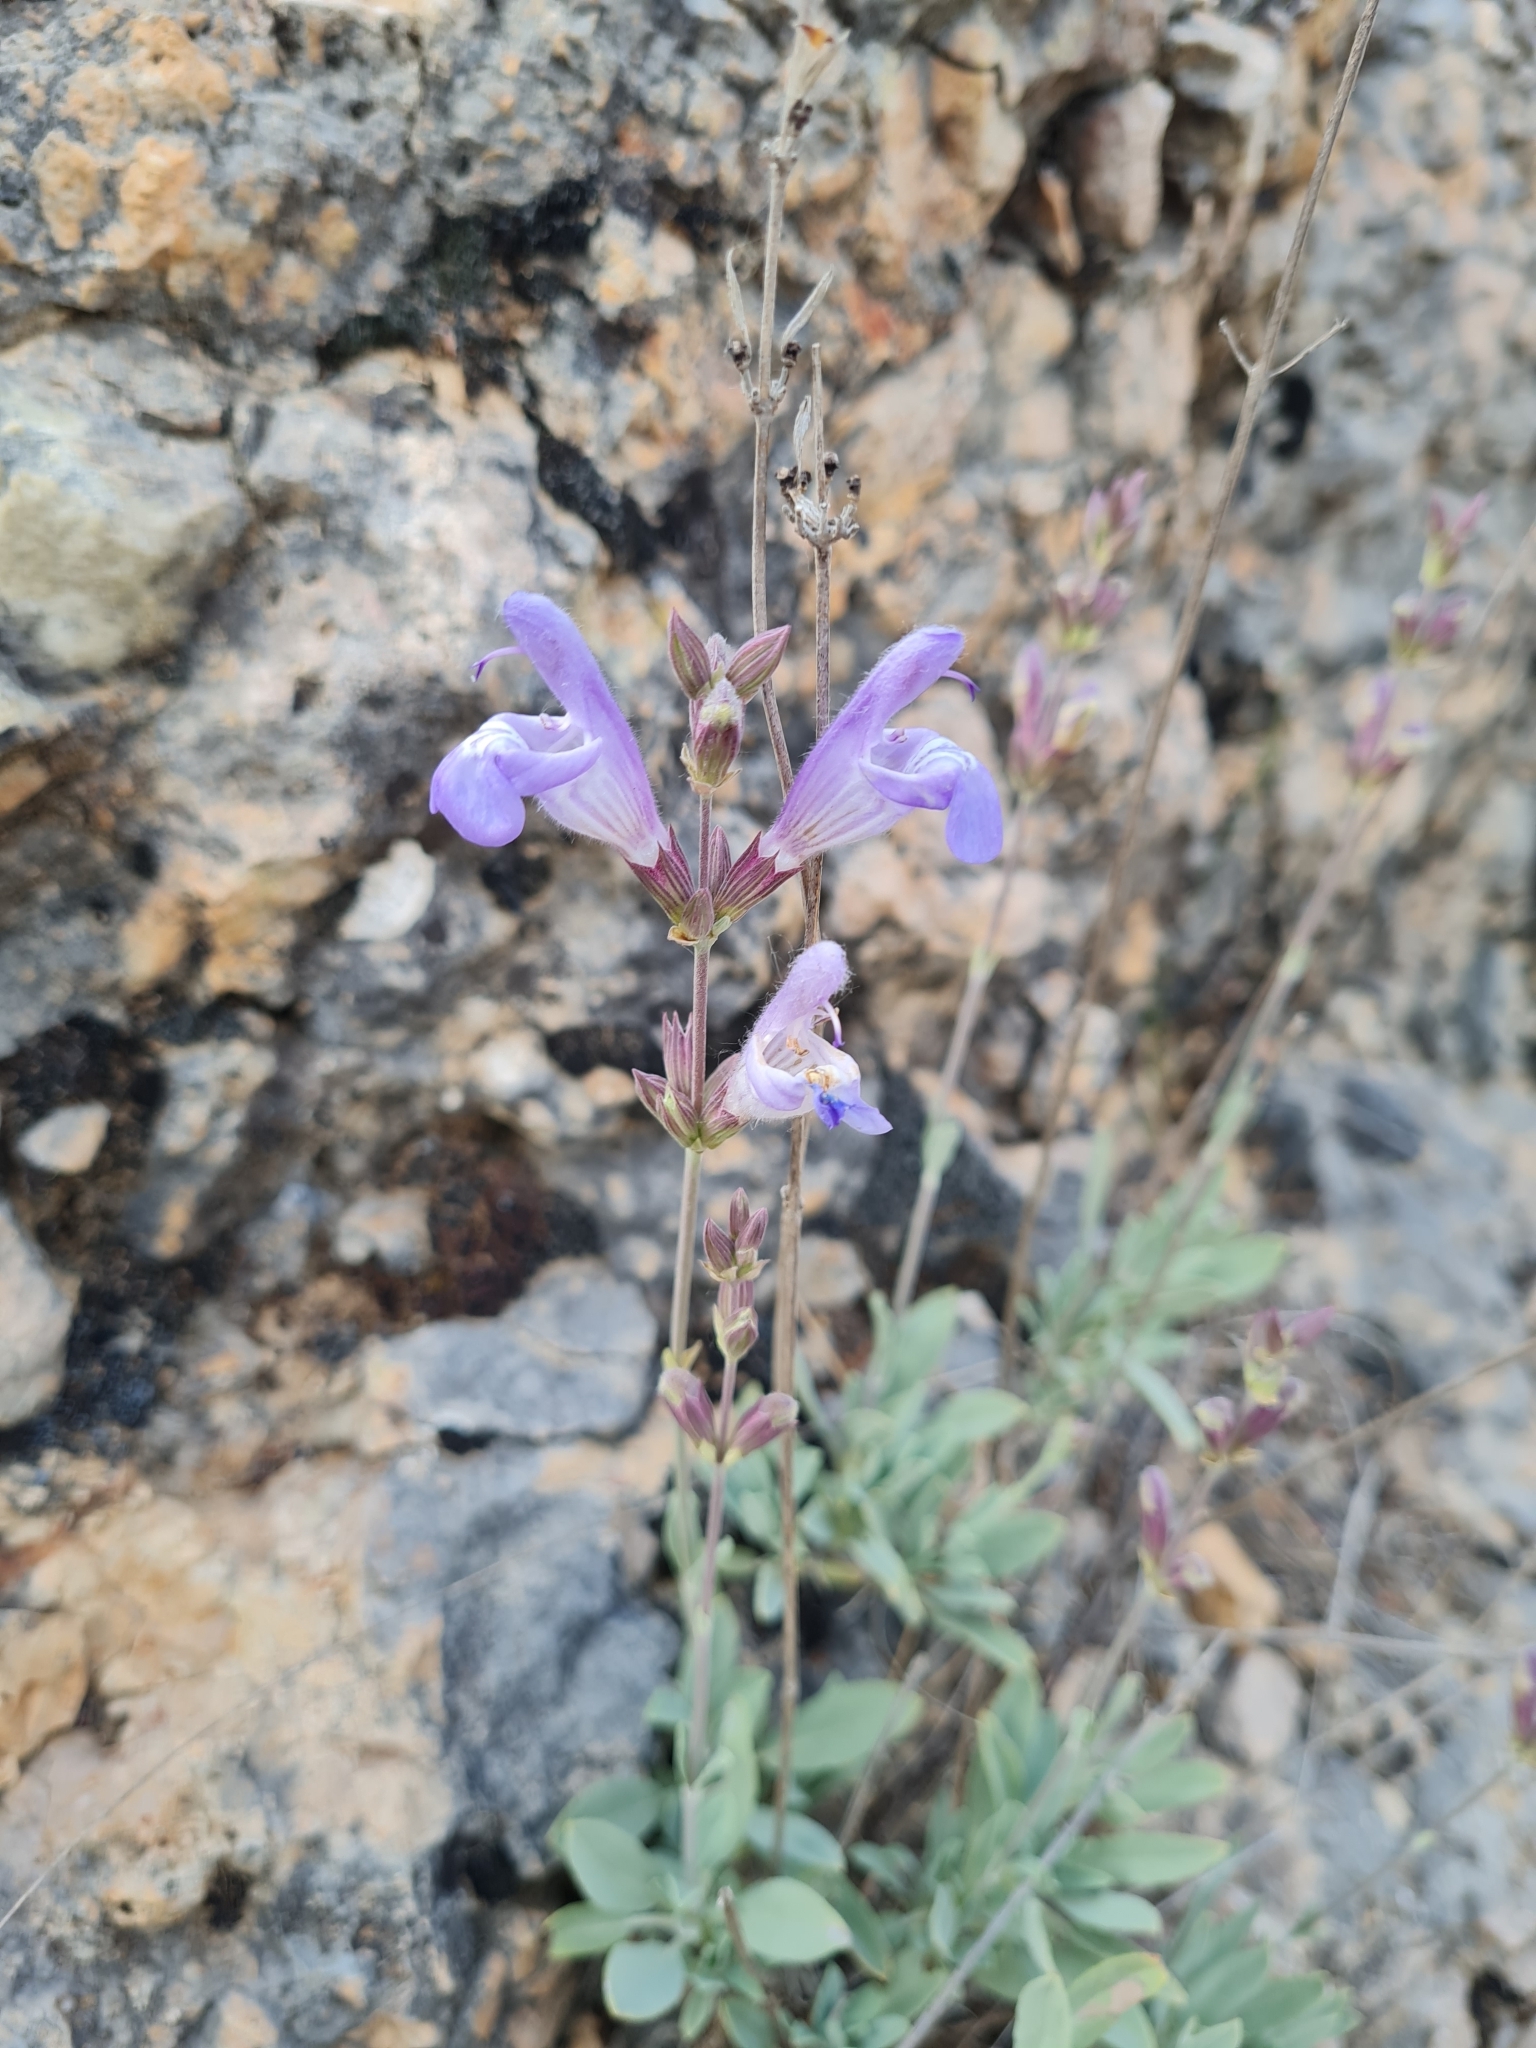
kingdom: Plantae
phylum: Tracheophyta
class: Magnoliopsida
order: Lamiales
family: Lamiaceae
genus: Salvia
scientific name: Salvia officinalis
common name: Sage
